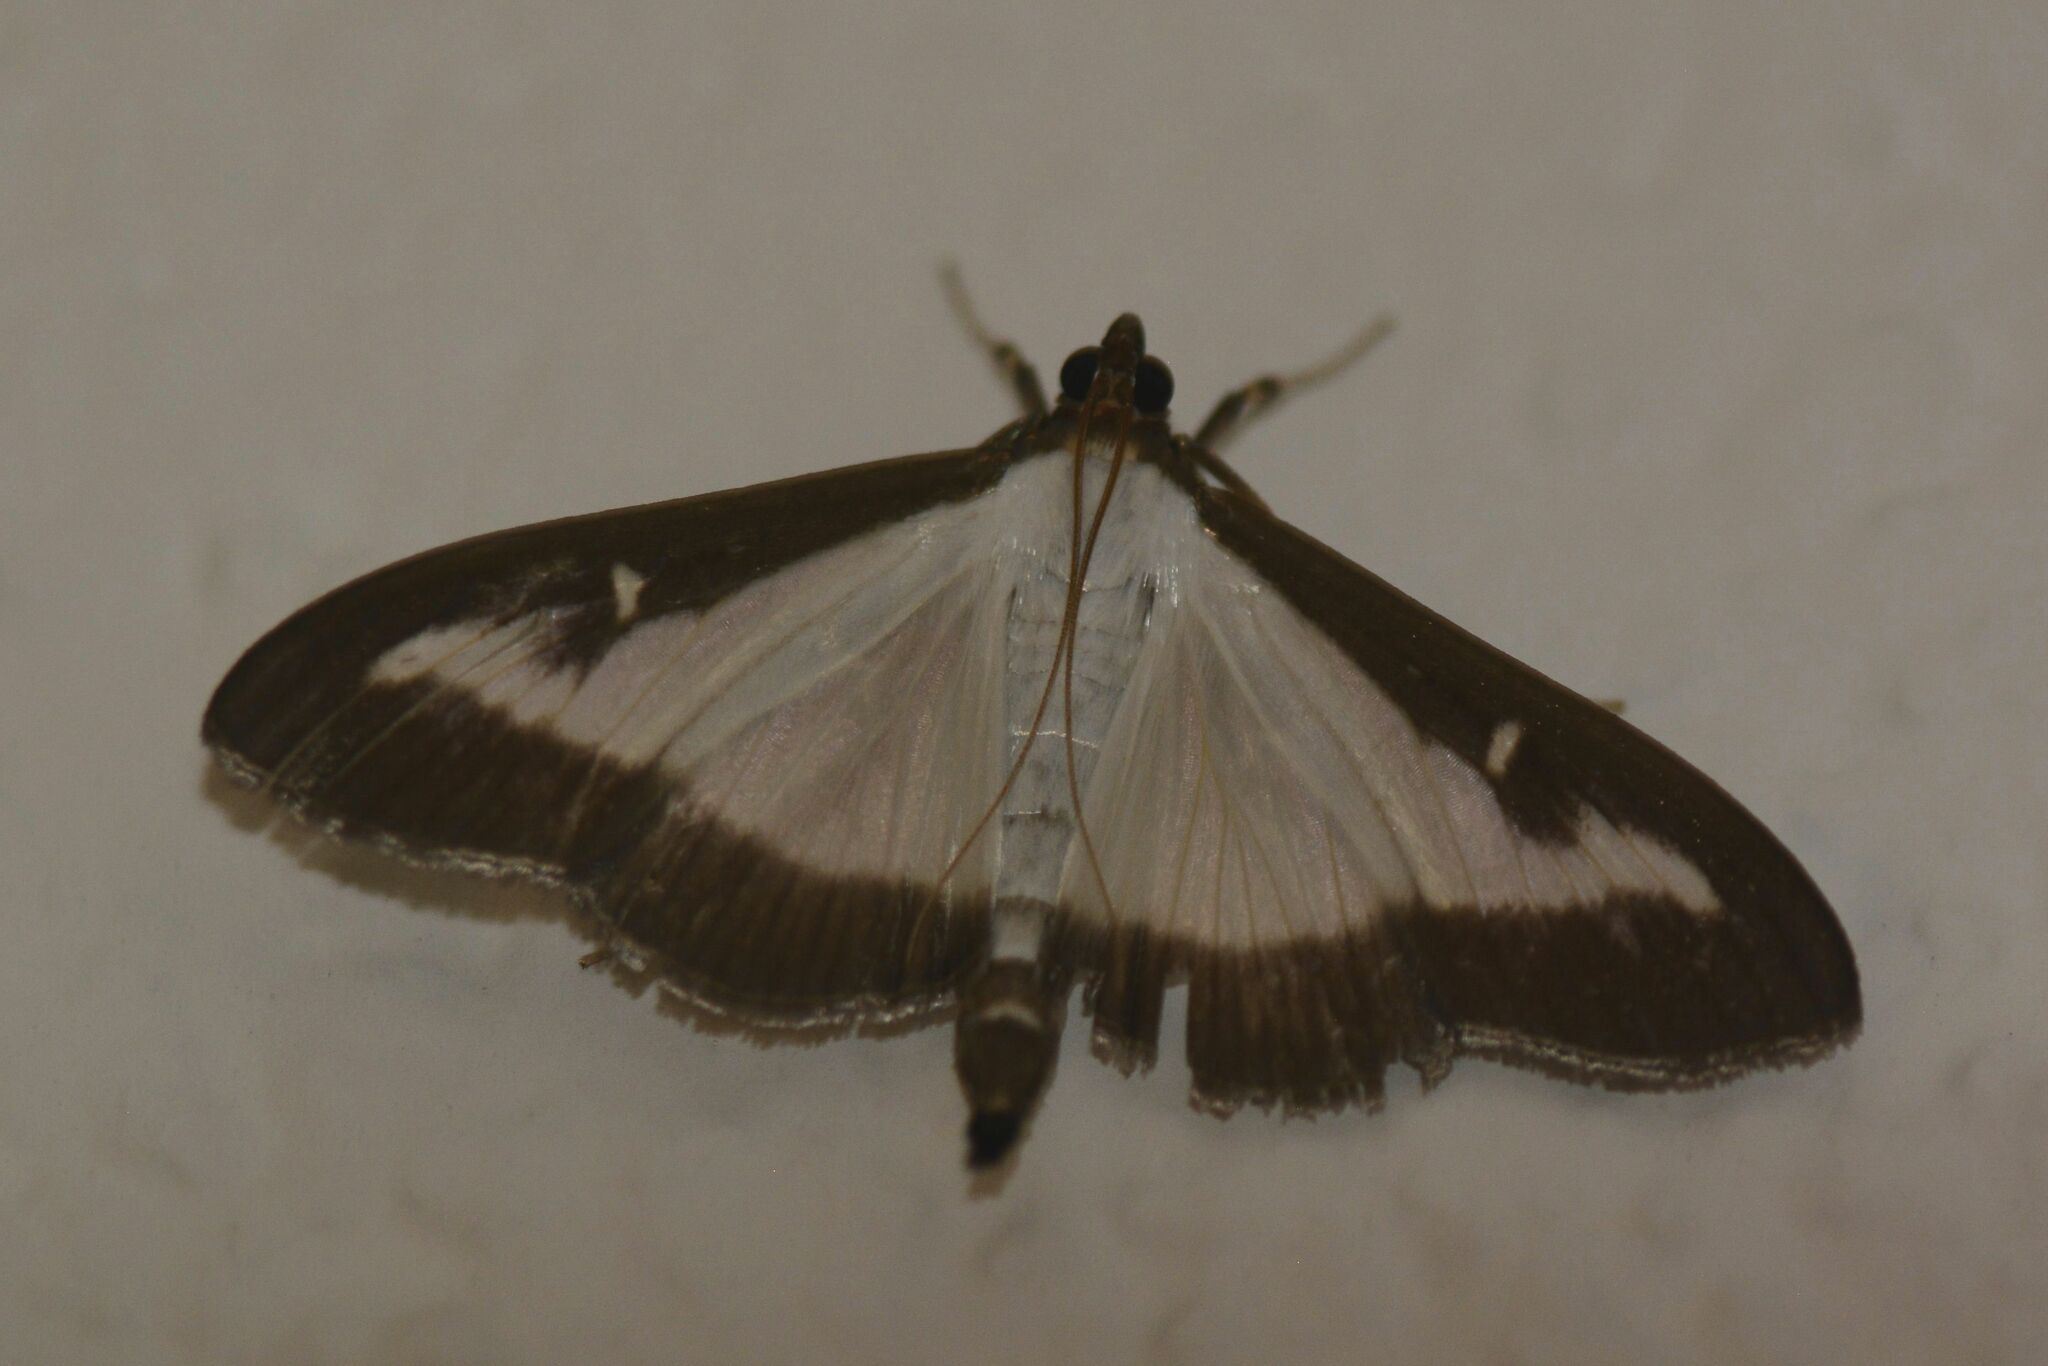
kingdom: Animalia
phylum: Arthropoda
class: Insecta
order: Lepidoptera
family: Crambidae
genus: Cydalima
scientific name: Cydalima perspectalis
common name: Box tree moth
